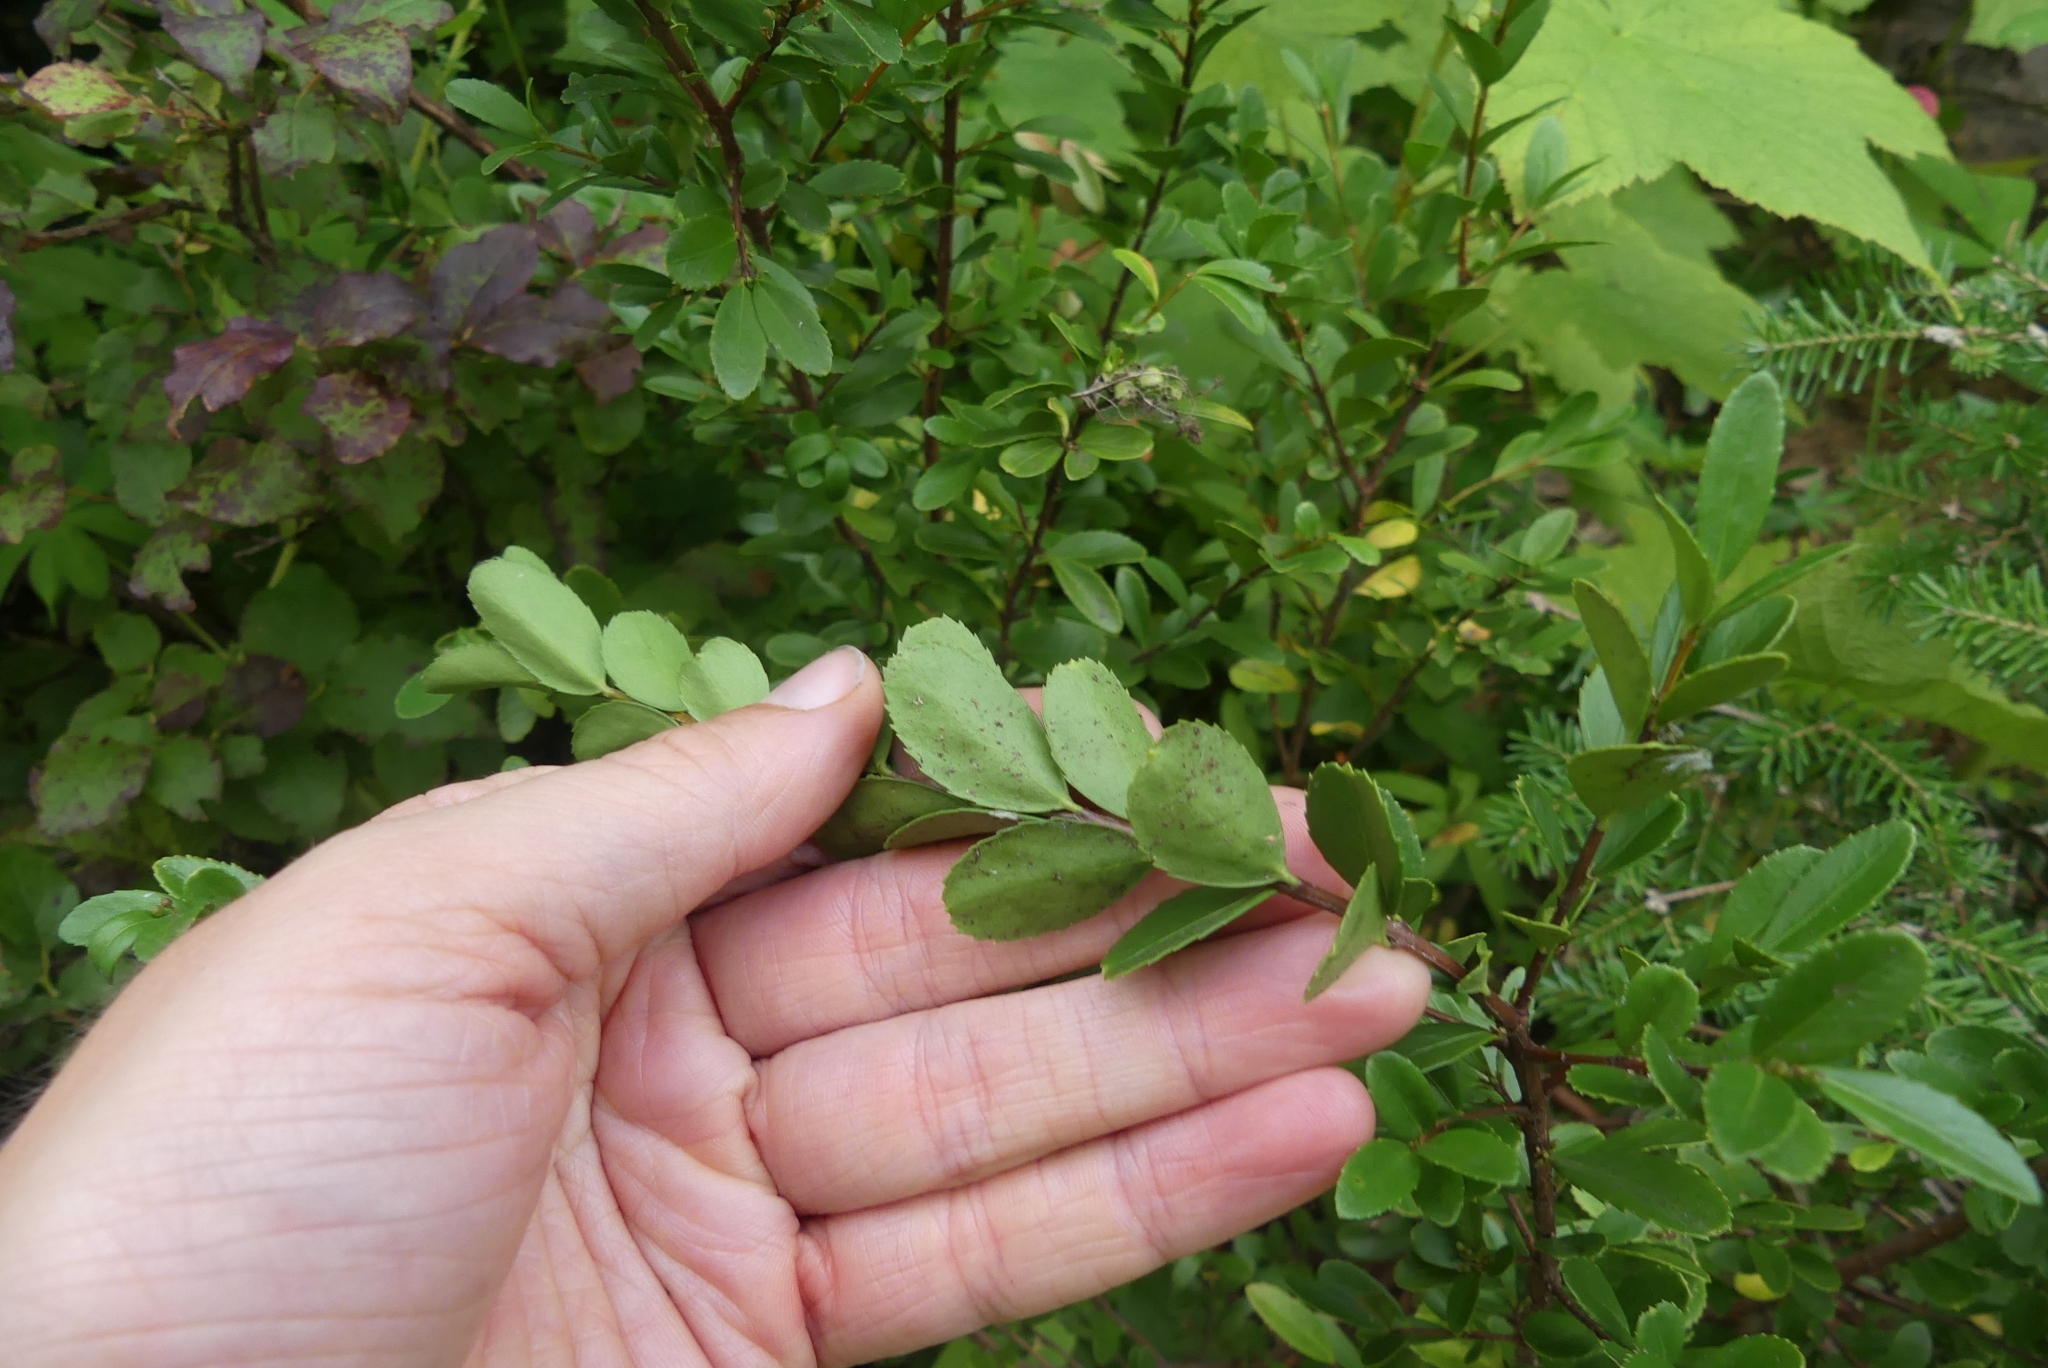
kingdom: Plantae
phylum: Tracheophyta
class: Magnoliopsida
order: Celastrales
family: Celastraceae
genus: Paxistima
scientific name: Paxistima myrsinites
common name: Mountain-lover
